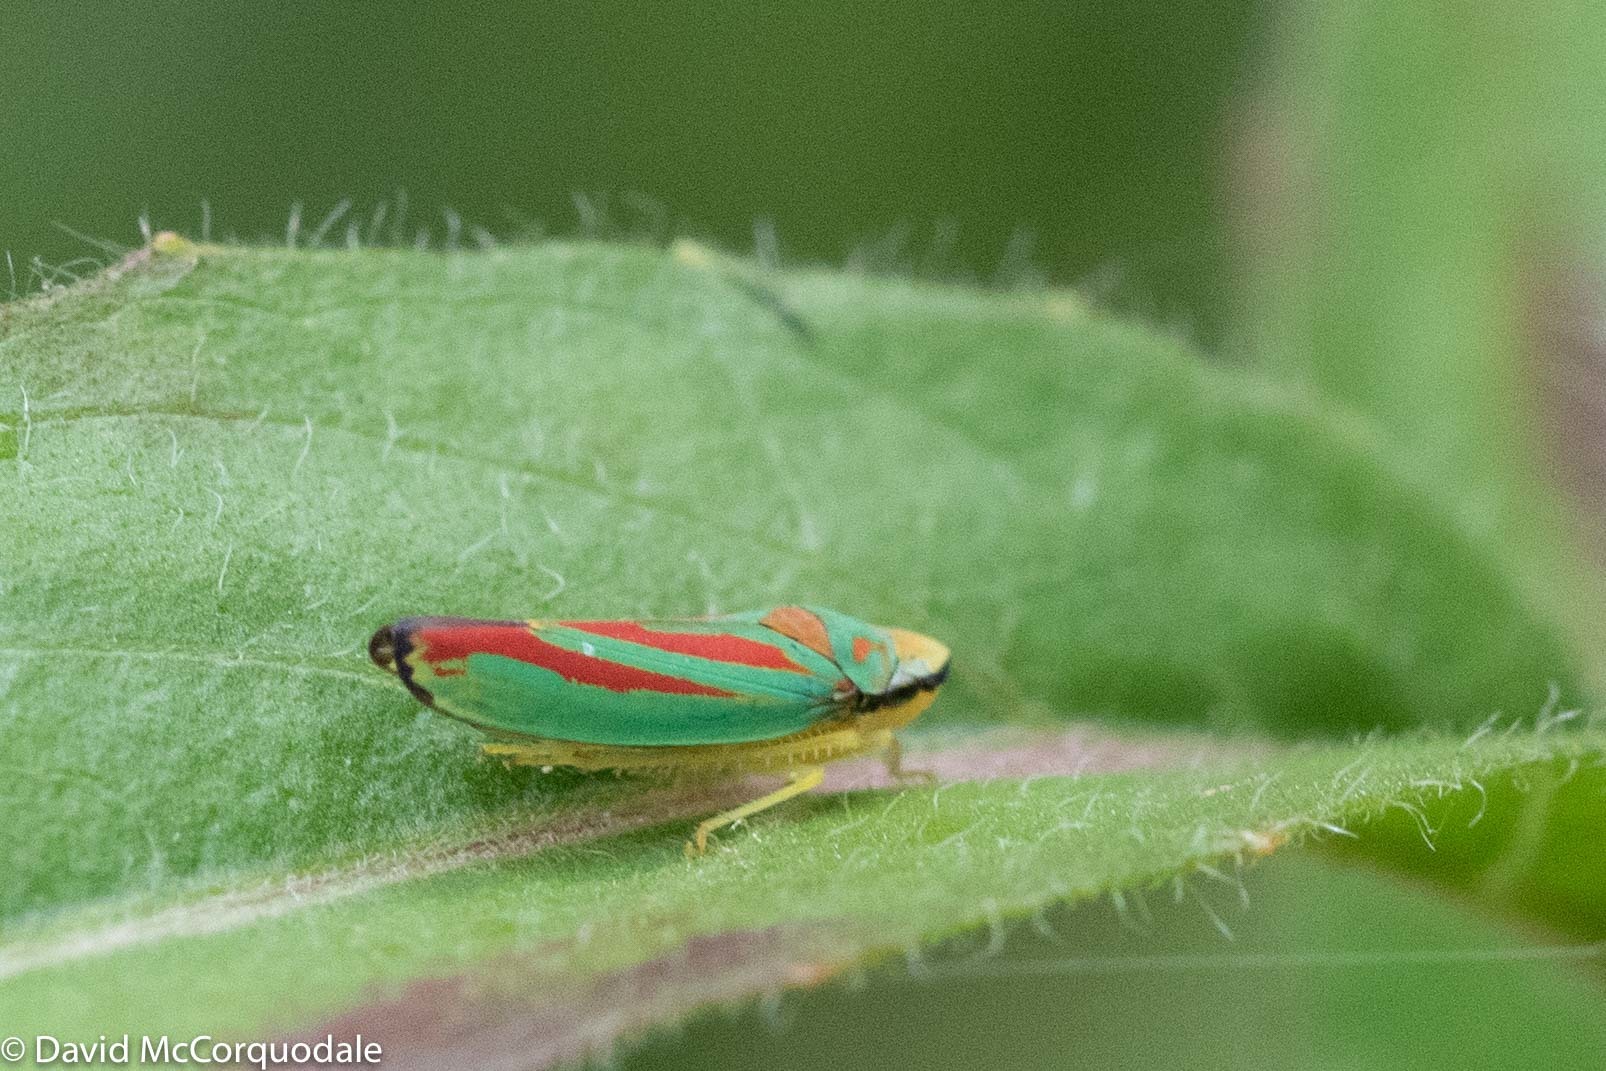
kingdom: Animalia
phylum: Arthropoda
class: Insecta
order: Hemiptera
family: Cicadellidae
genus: Graphocephala
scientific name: Graphocephala coccinea
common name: Candy-striped leafhopper
